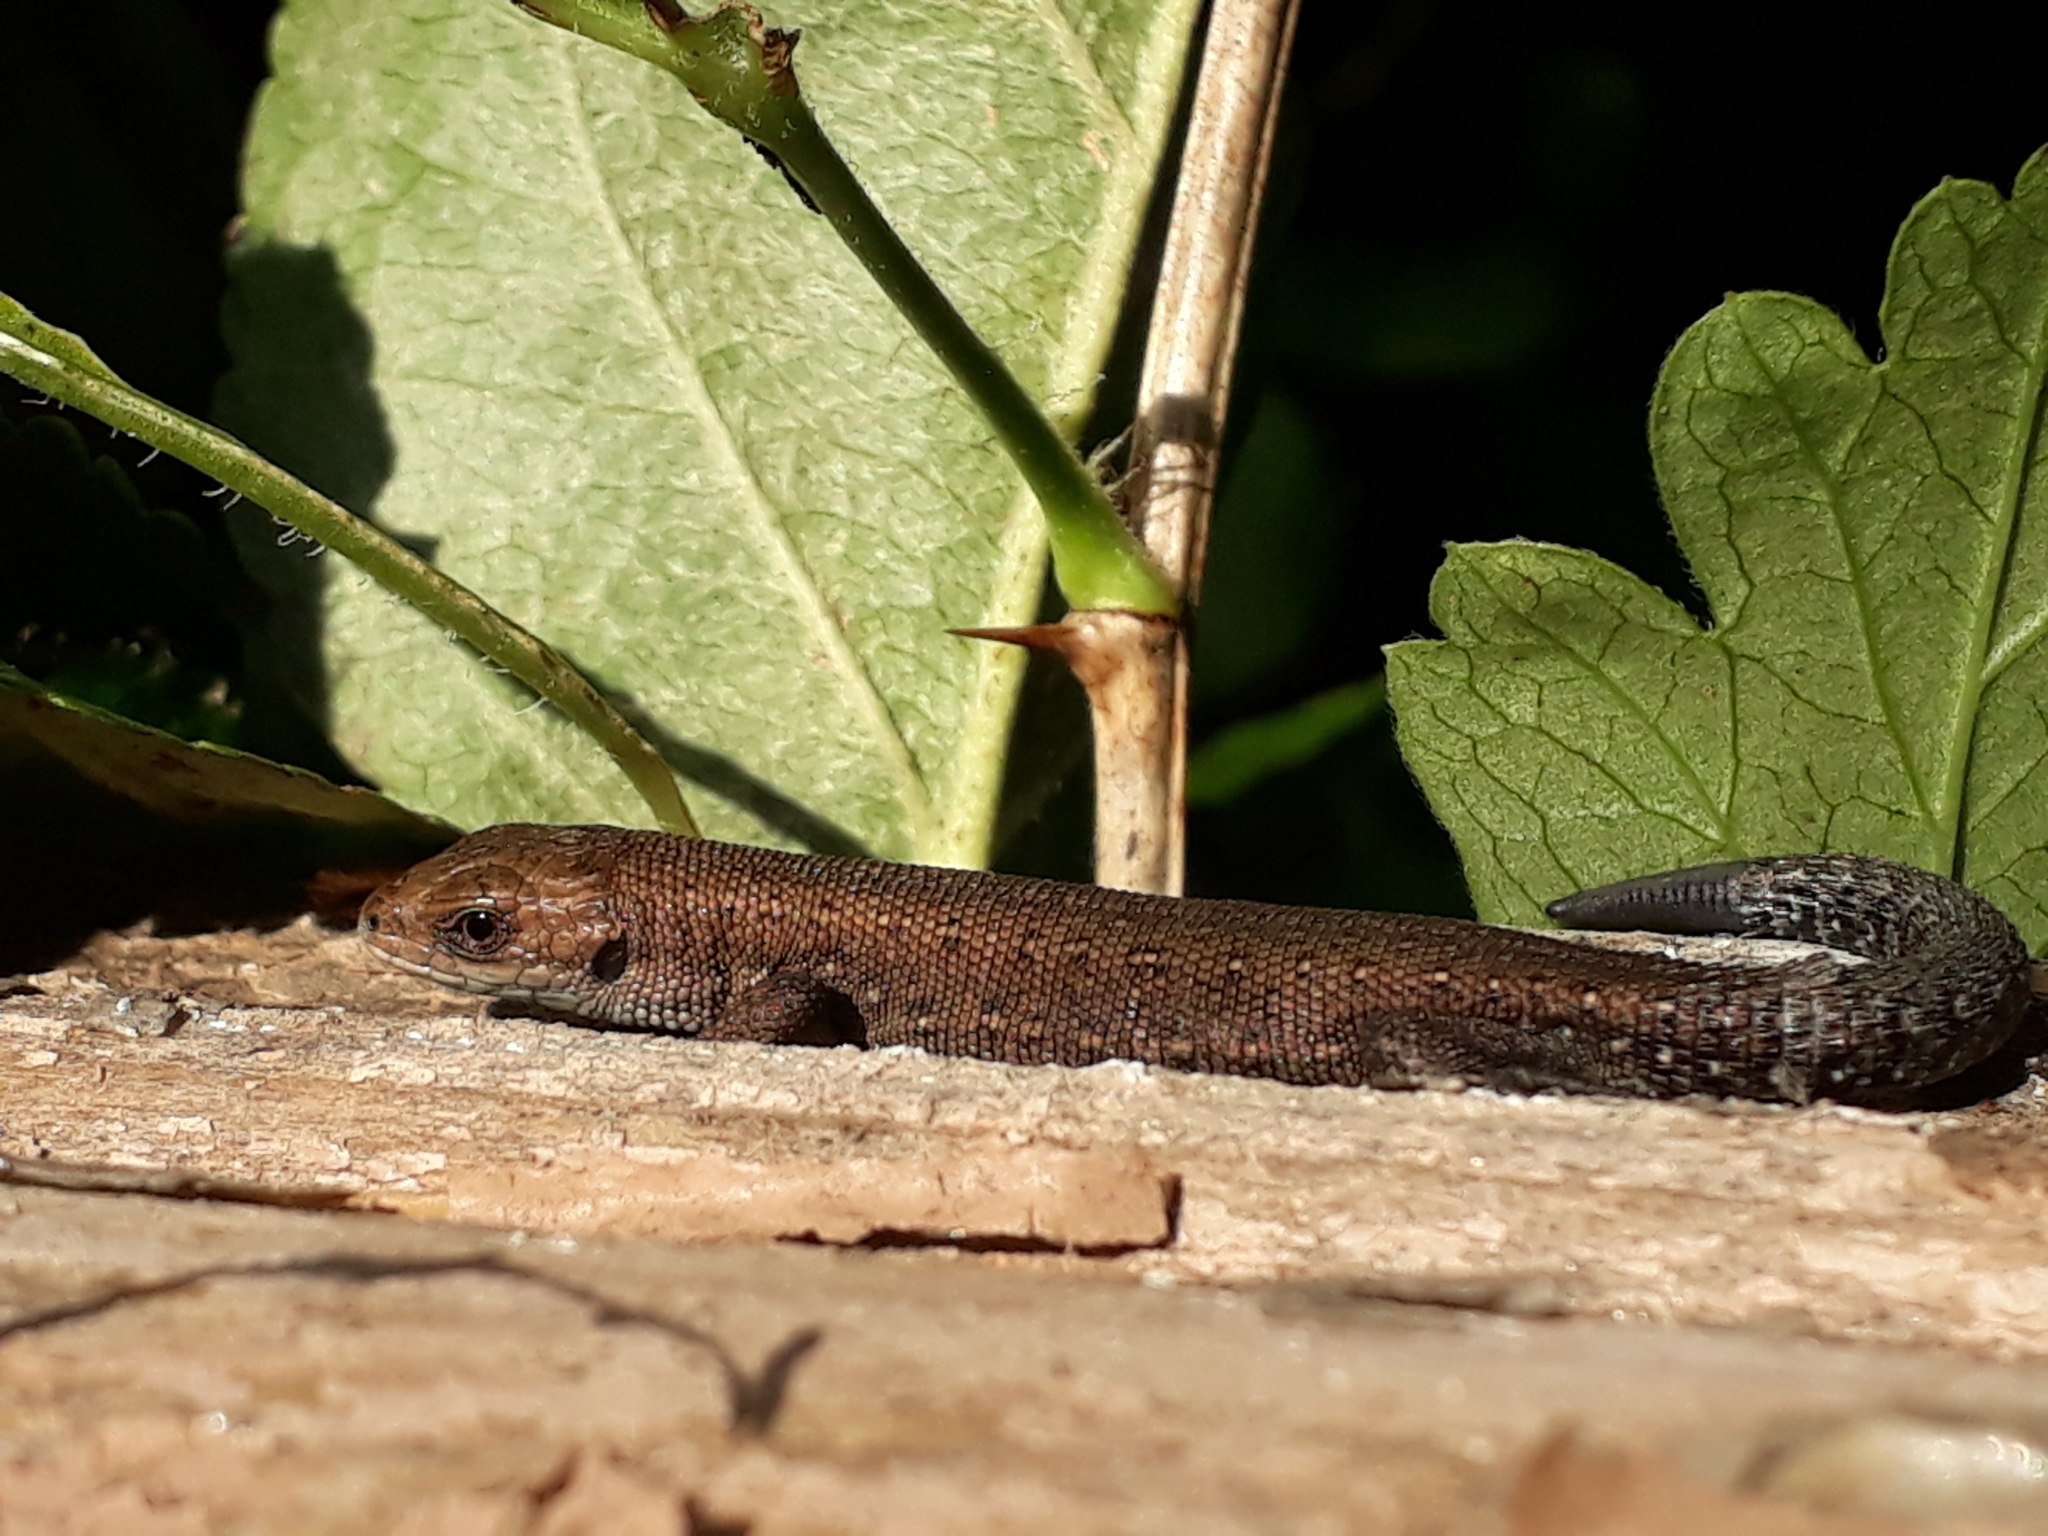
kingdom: Animalia
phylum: Chordata
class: Squamata
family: Lacertidae
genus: Zootoca
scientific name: Zootoca vivipara
